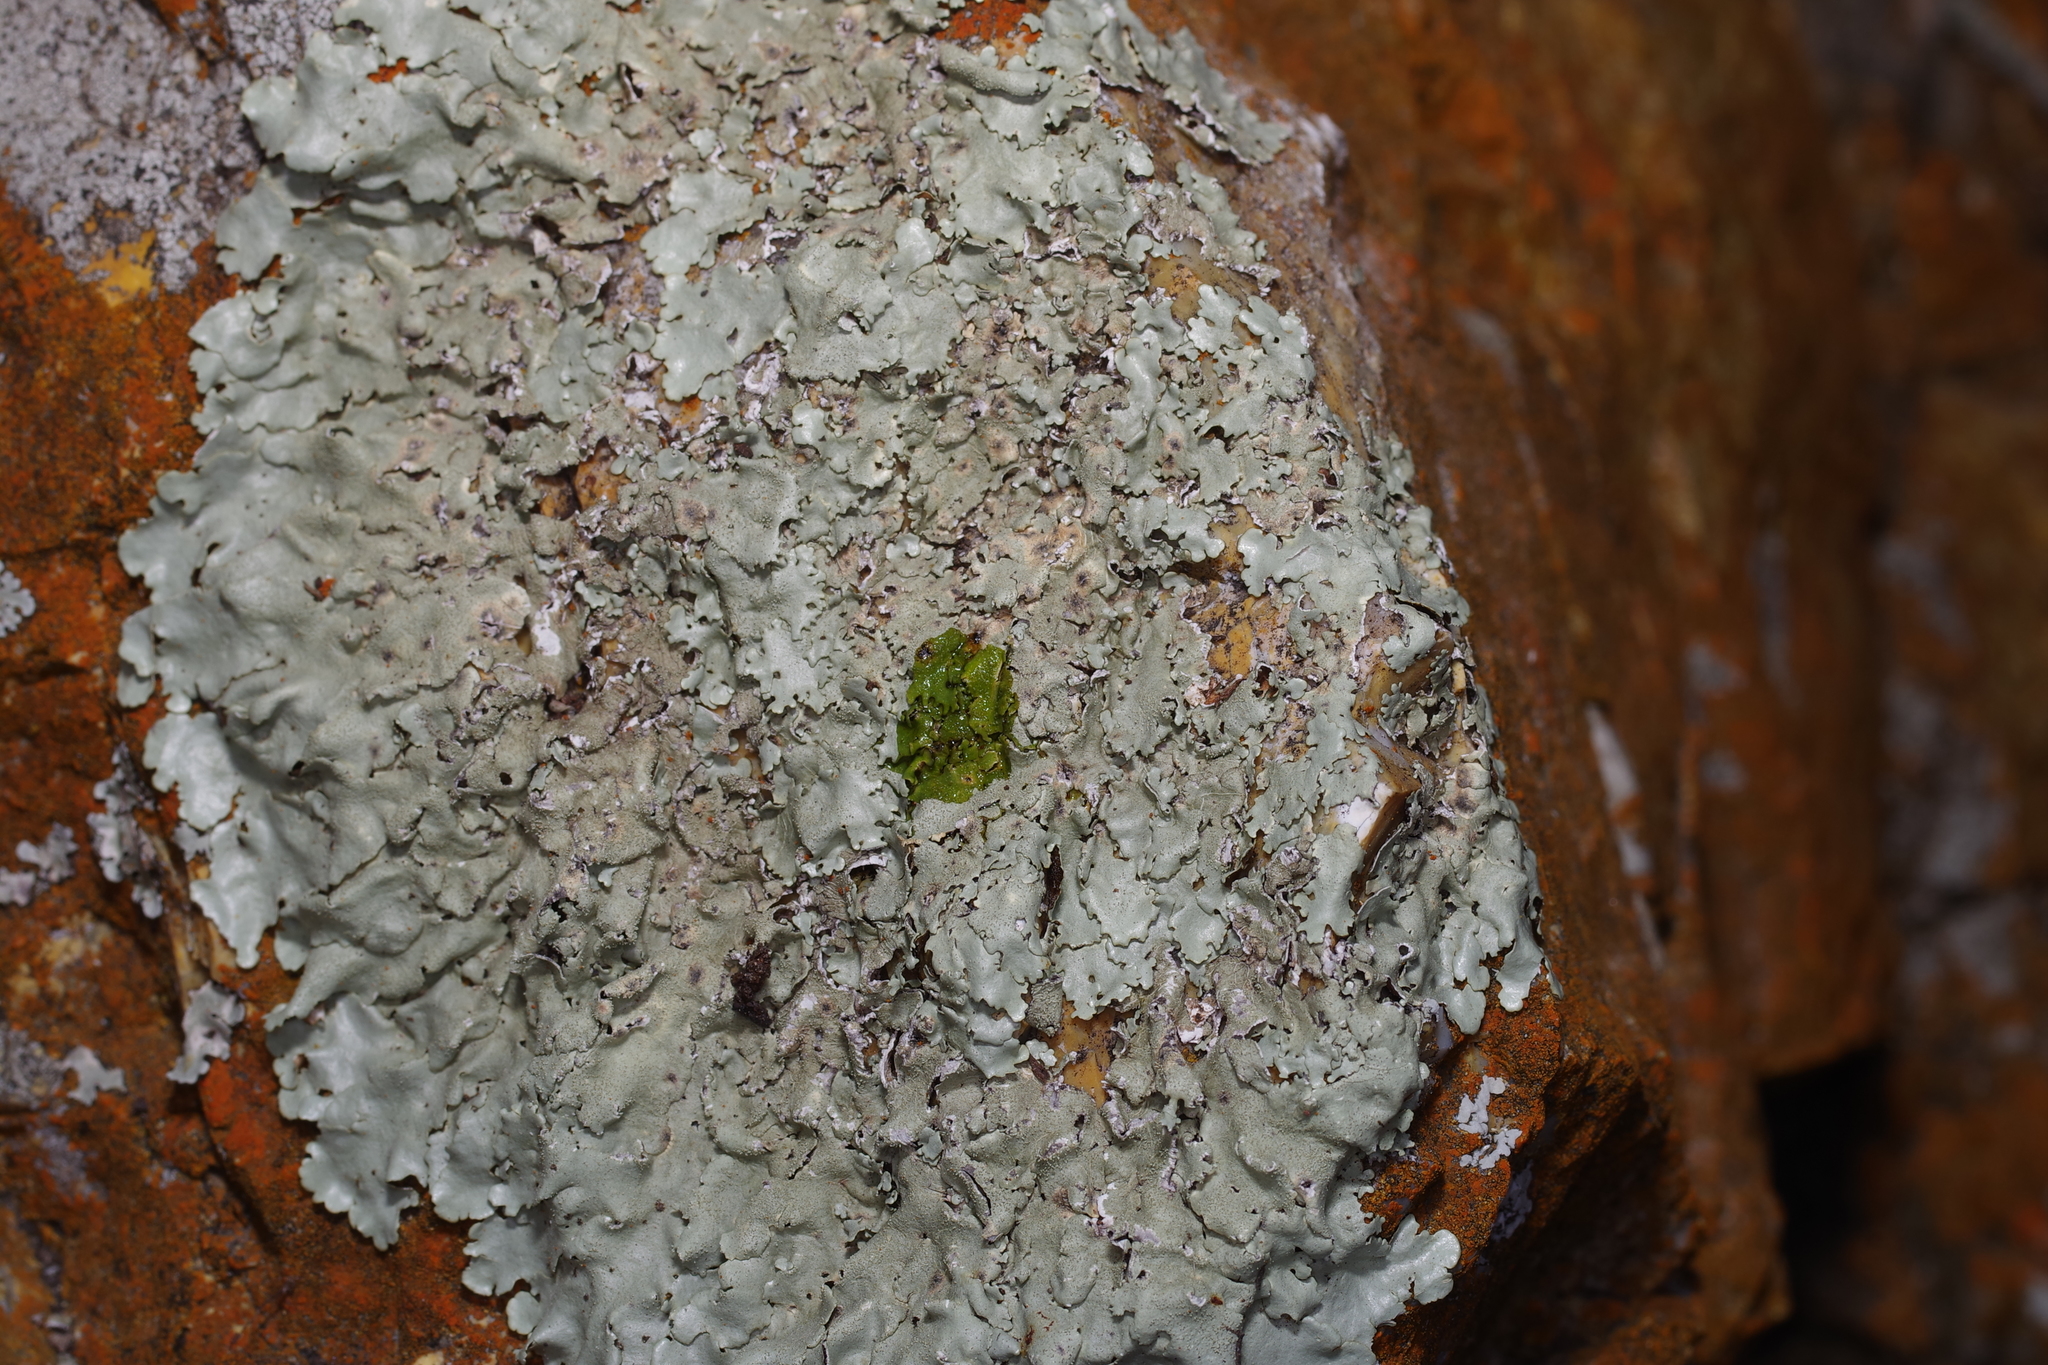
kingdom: Fungi
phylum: Ascomycota
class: Lecanoromycetes
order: Lecanorales
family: Parmeliaceae
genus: Punctelia
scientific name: Punctelia rudecta
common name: Rough speckled shield lichen
